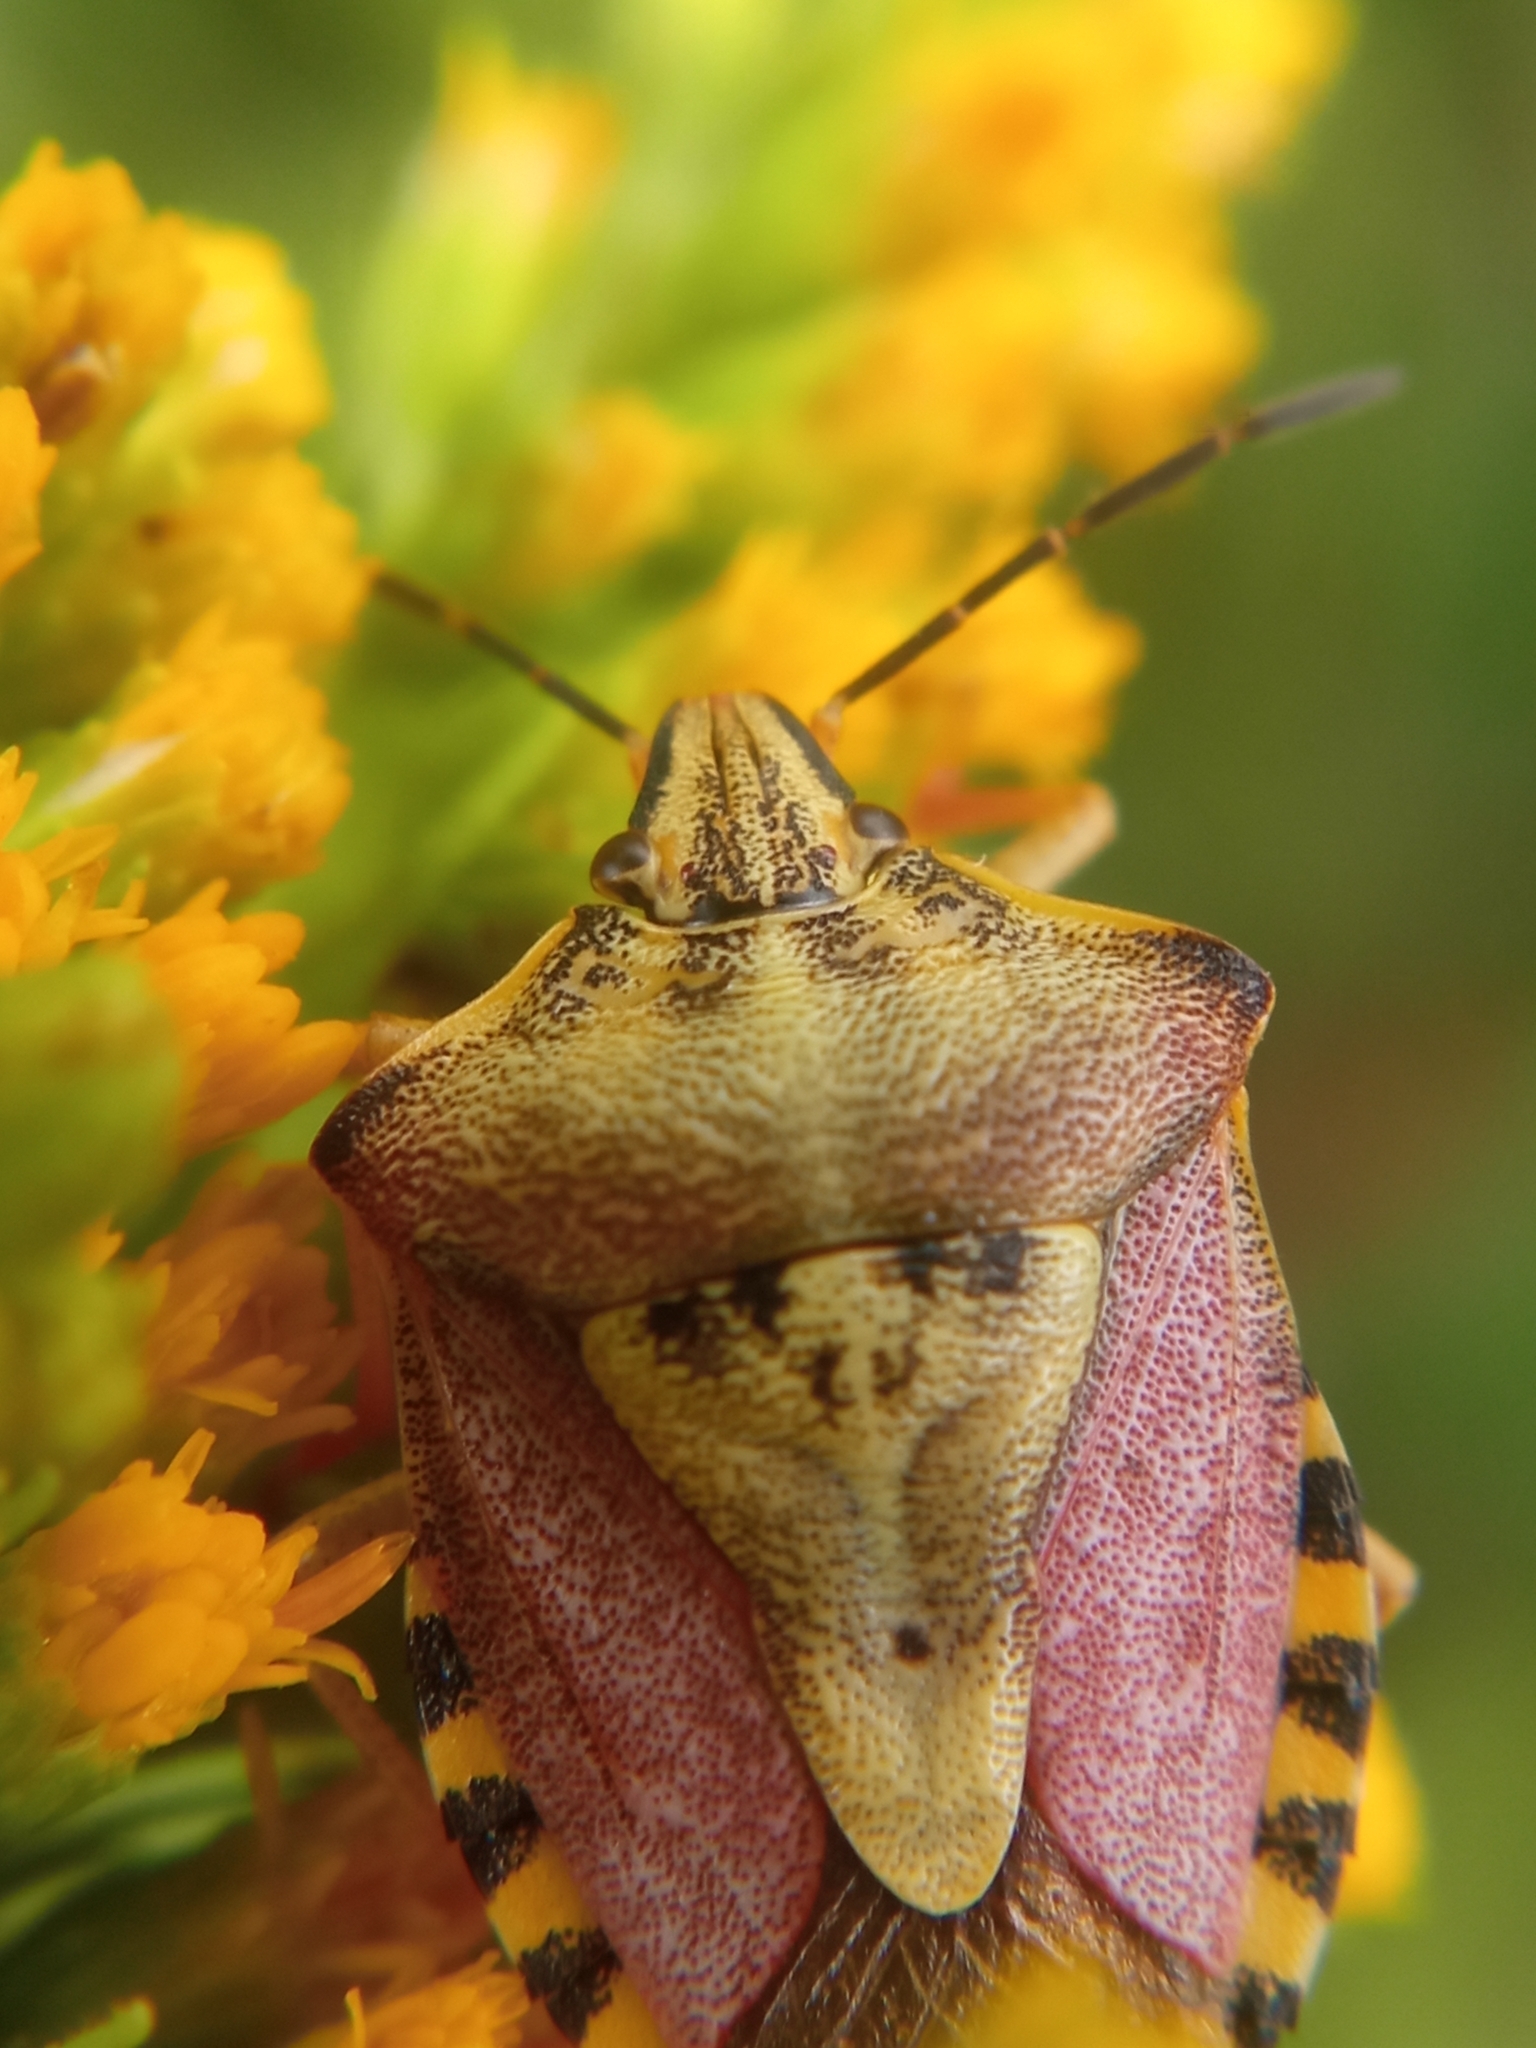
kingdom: Animalia
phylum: Arthropoda
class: Insecta
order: Hemiptera
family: Pentatomidae
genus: Carpocoris
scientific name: Carpocoris purpureipennis
